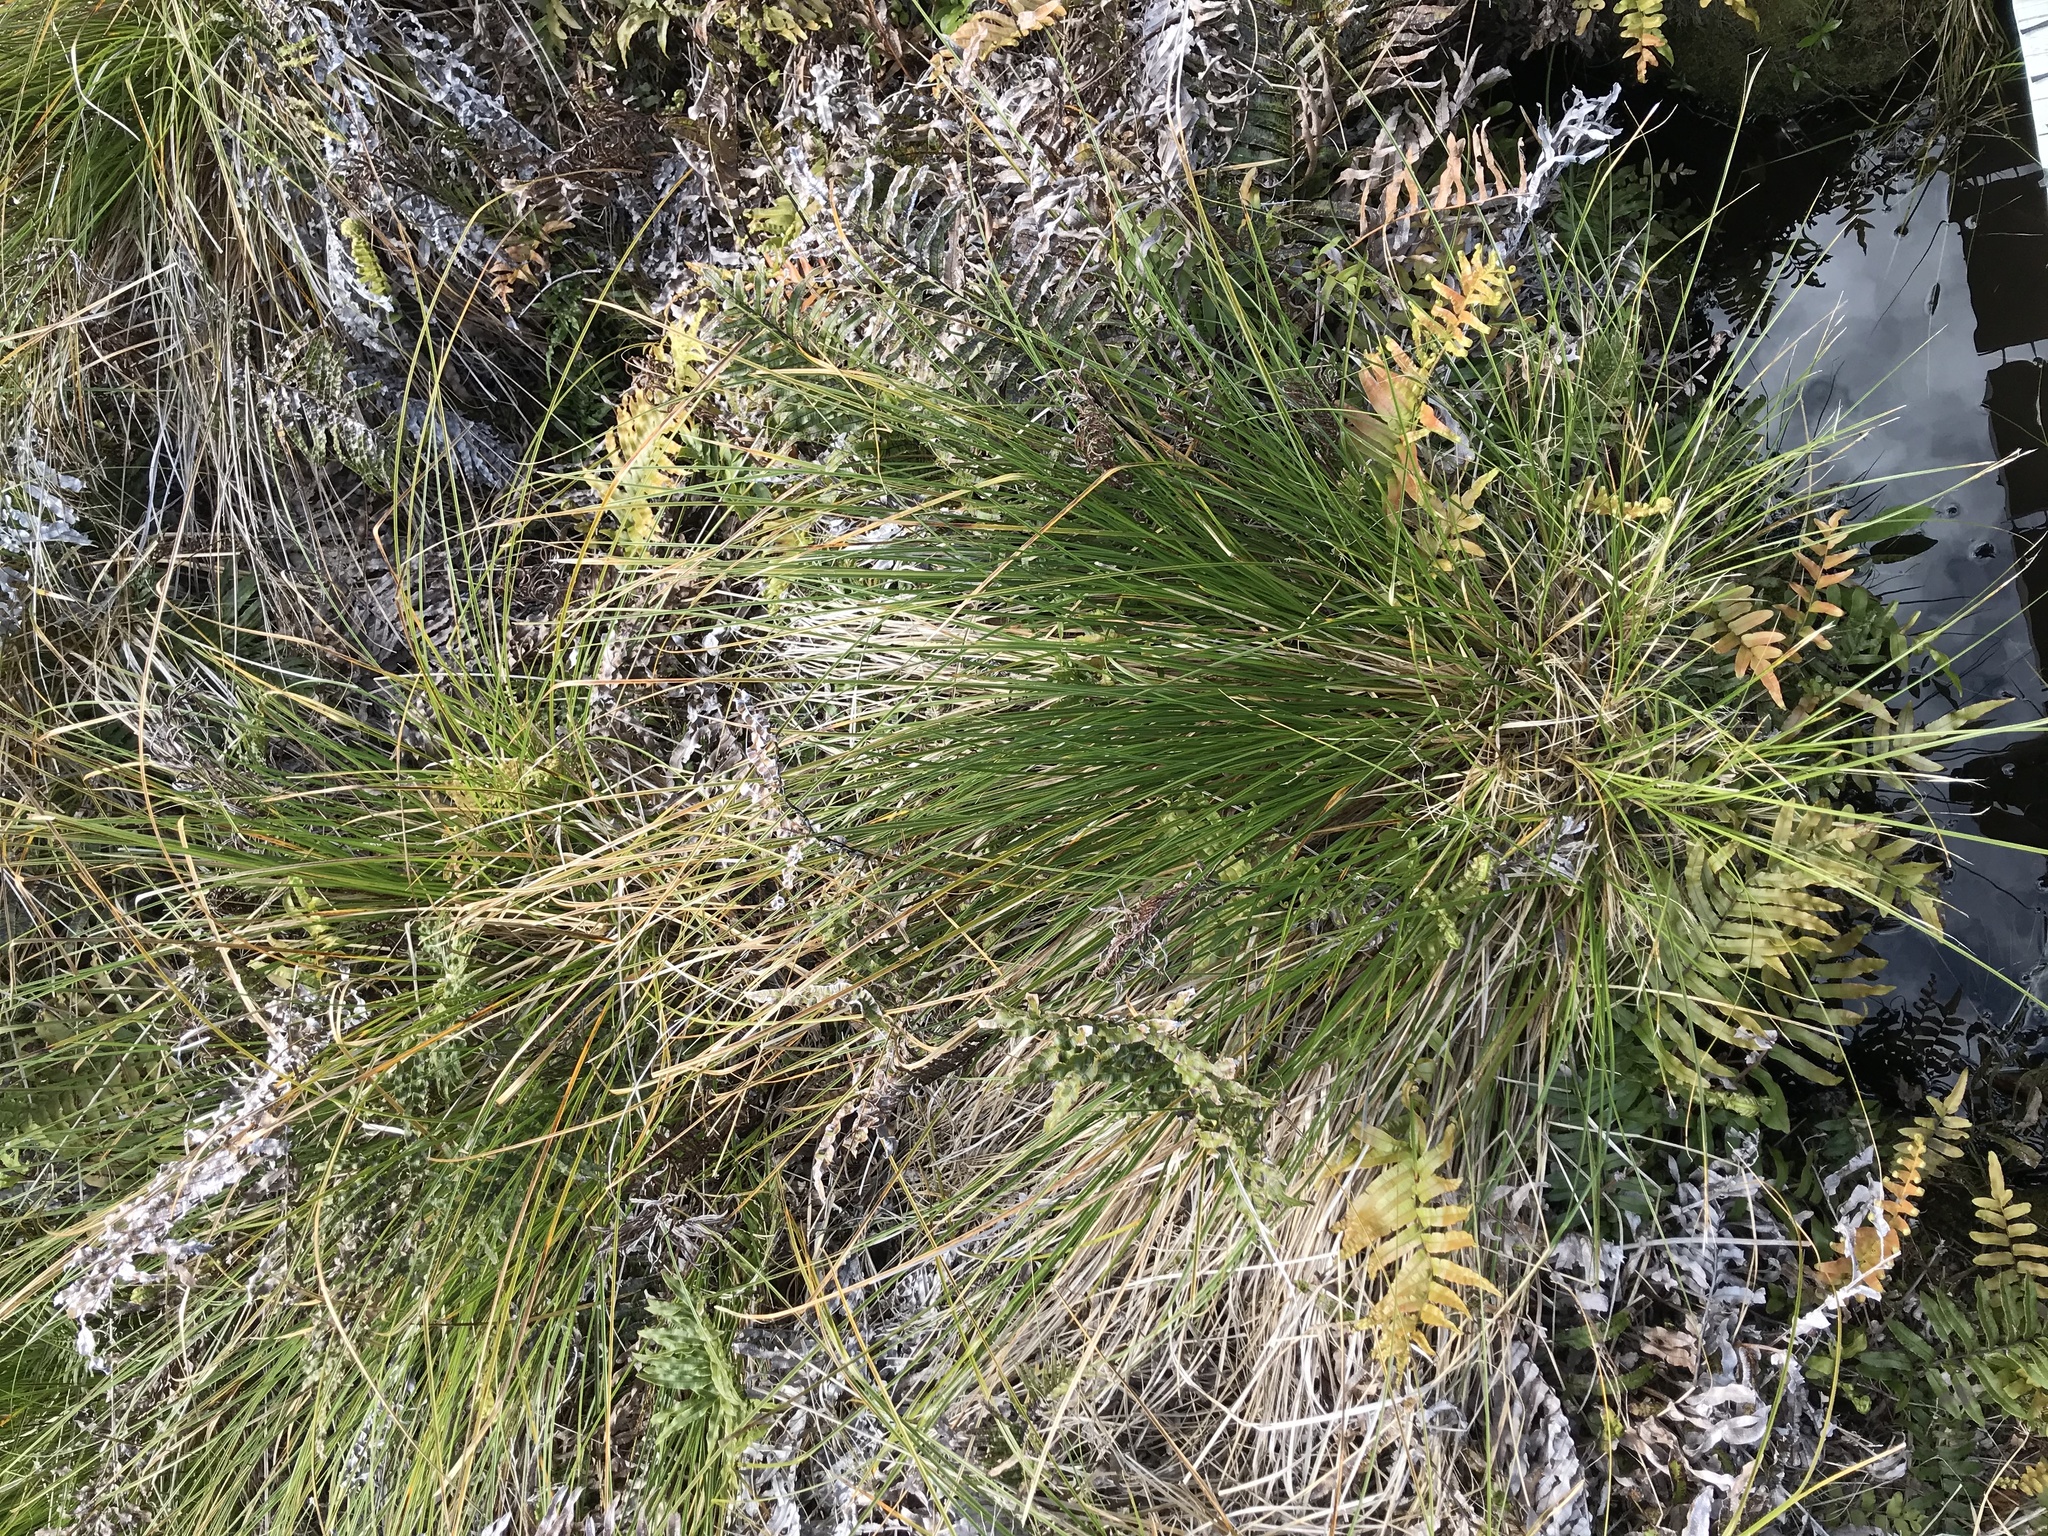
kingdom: Plantae
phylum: Tracheophyta
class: Liliopsida
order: Poales
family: Cyperaceae
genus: Carex
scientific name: Carex virgata
